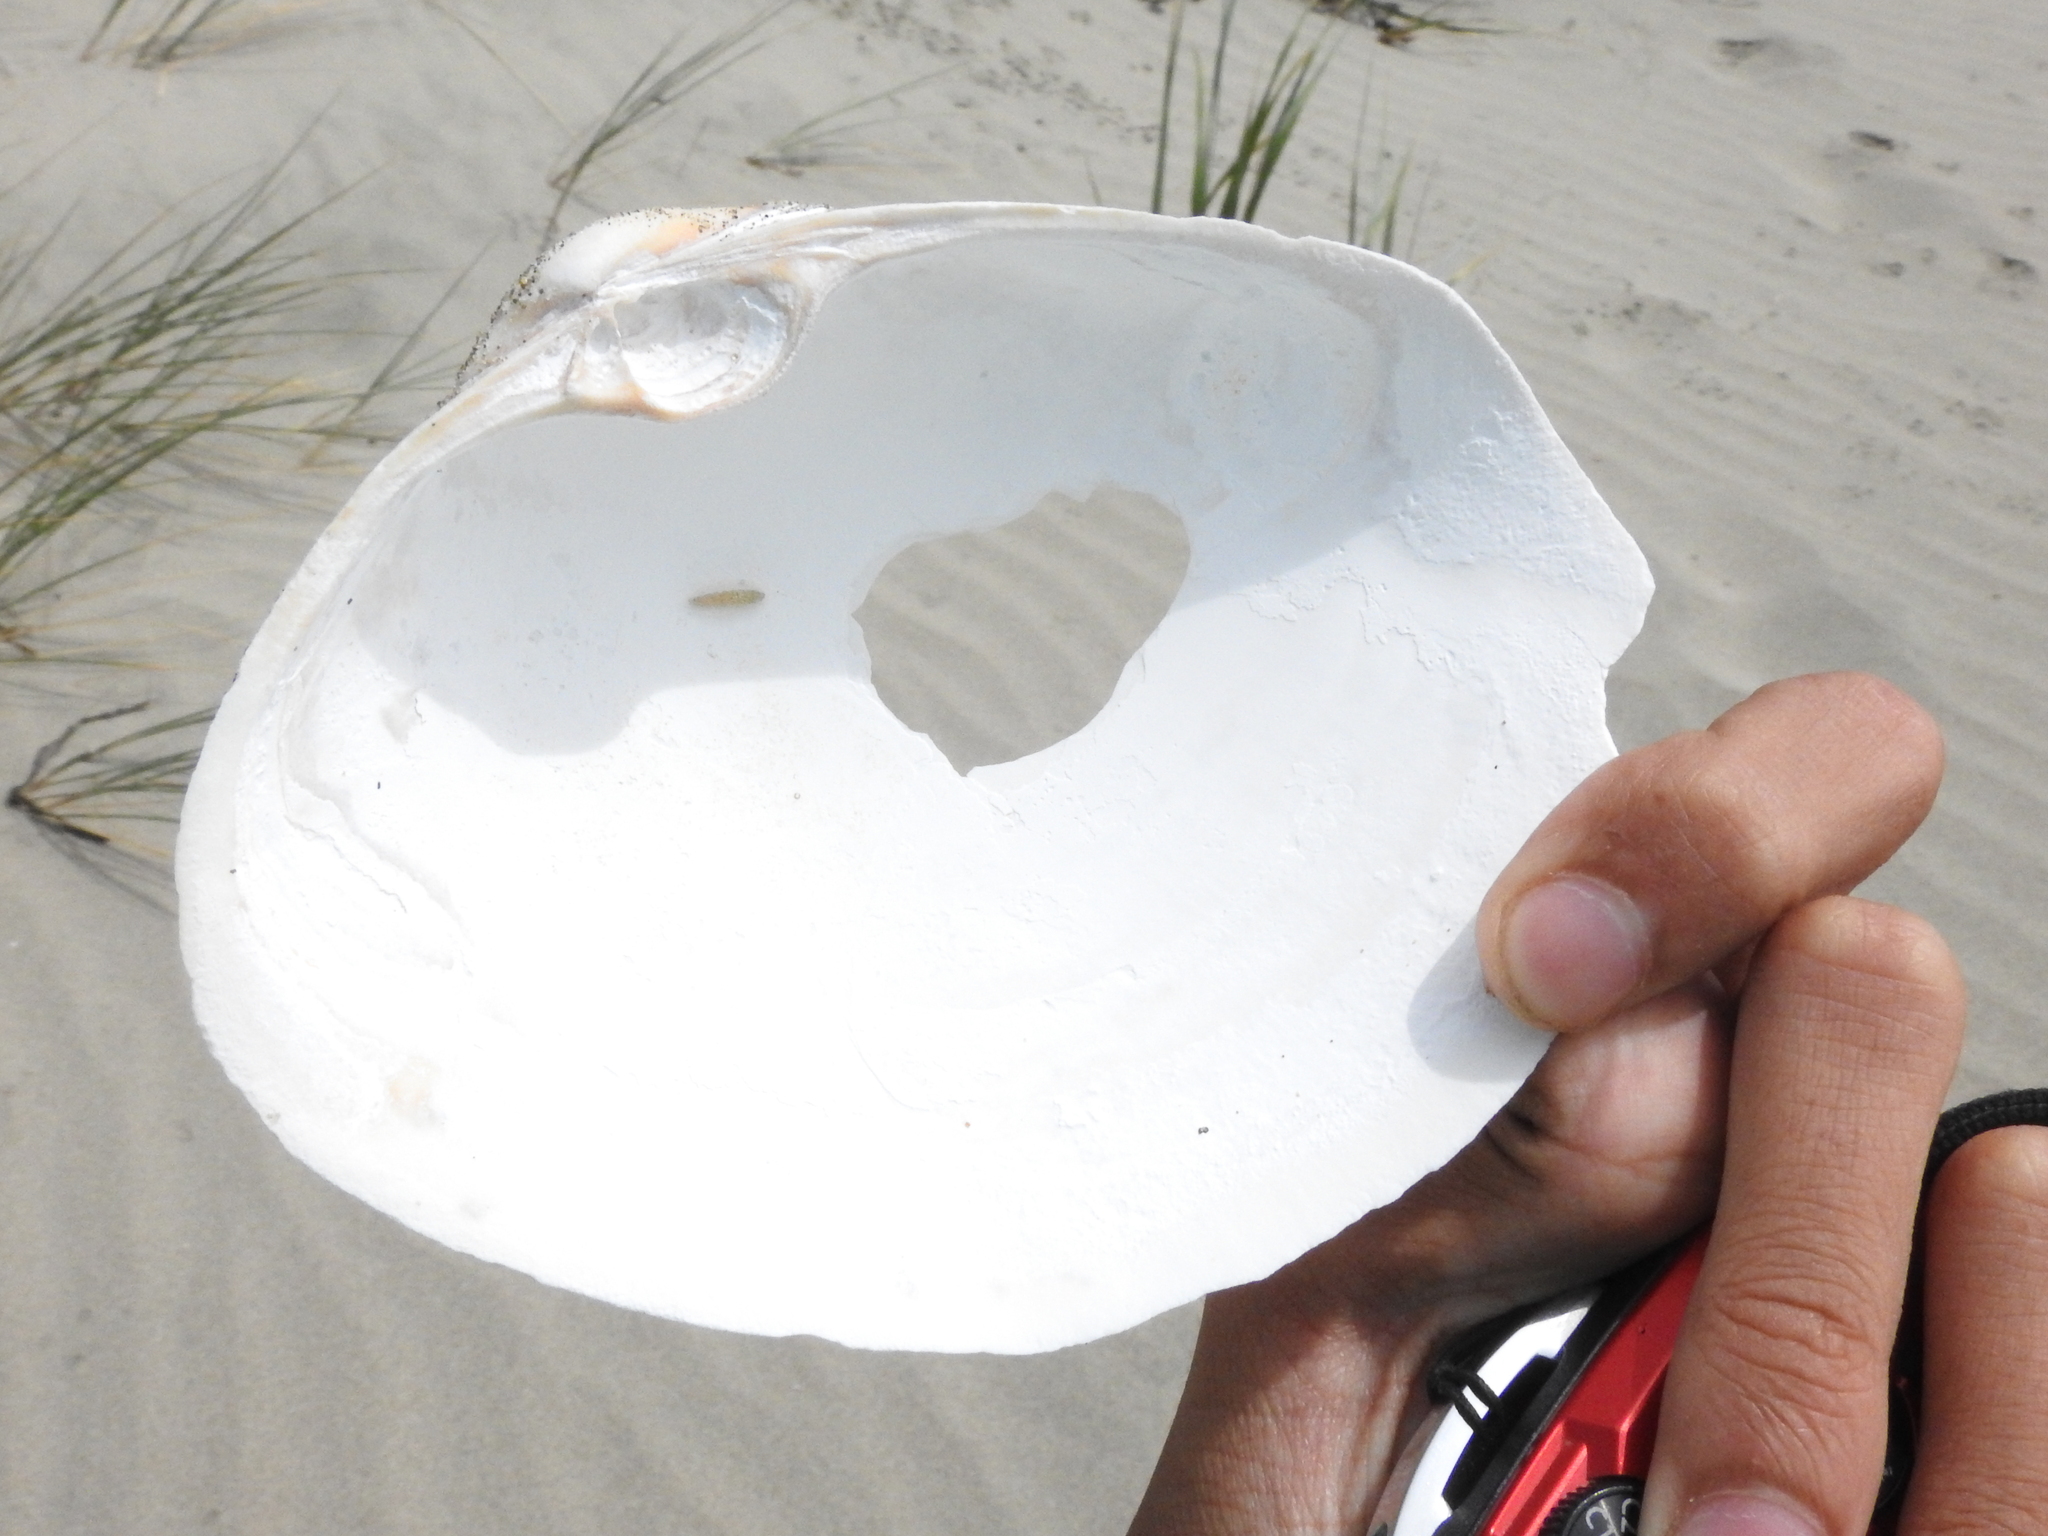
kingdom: Animalia
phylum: Mollusca
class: Bivalvia
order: Venerida
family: Mactridae
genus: Mactromeris
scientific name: Mactromeris catilliformis
